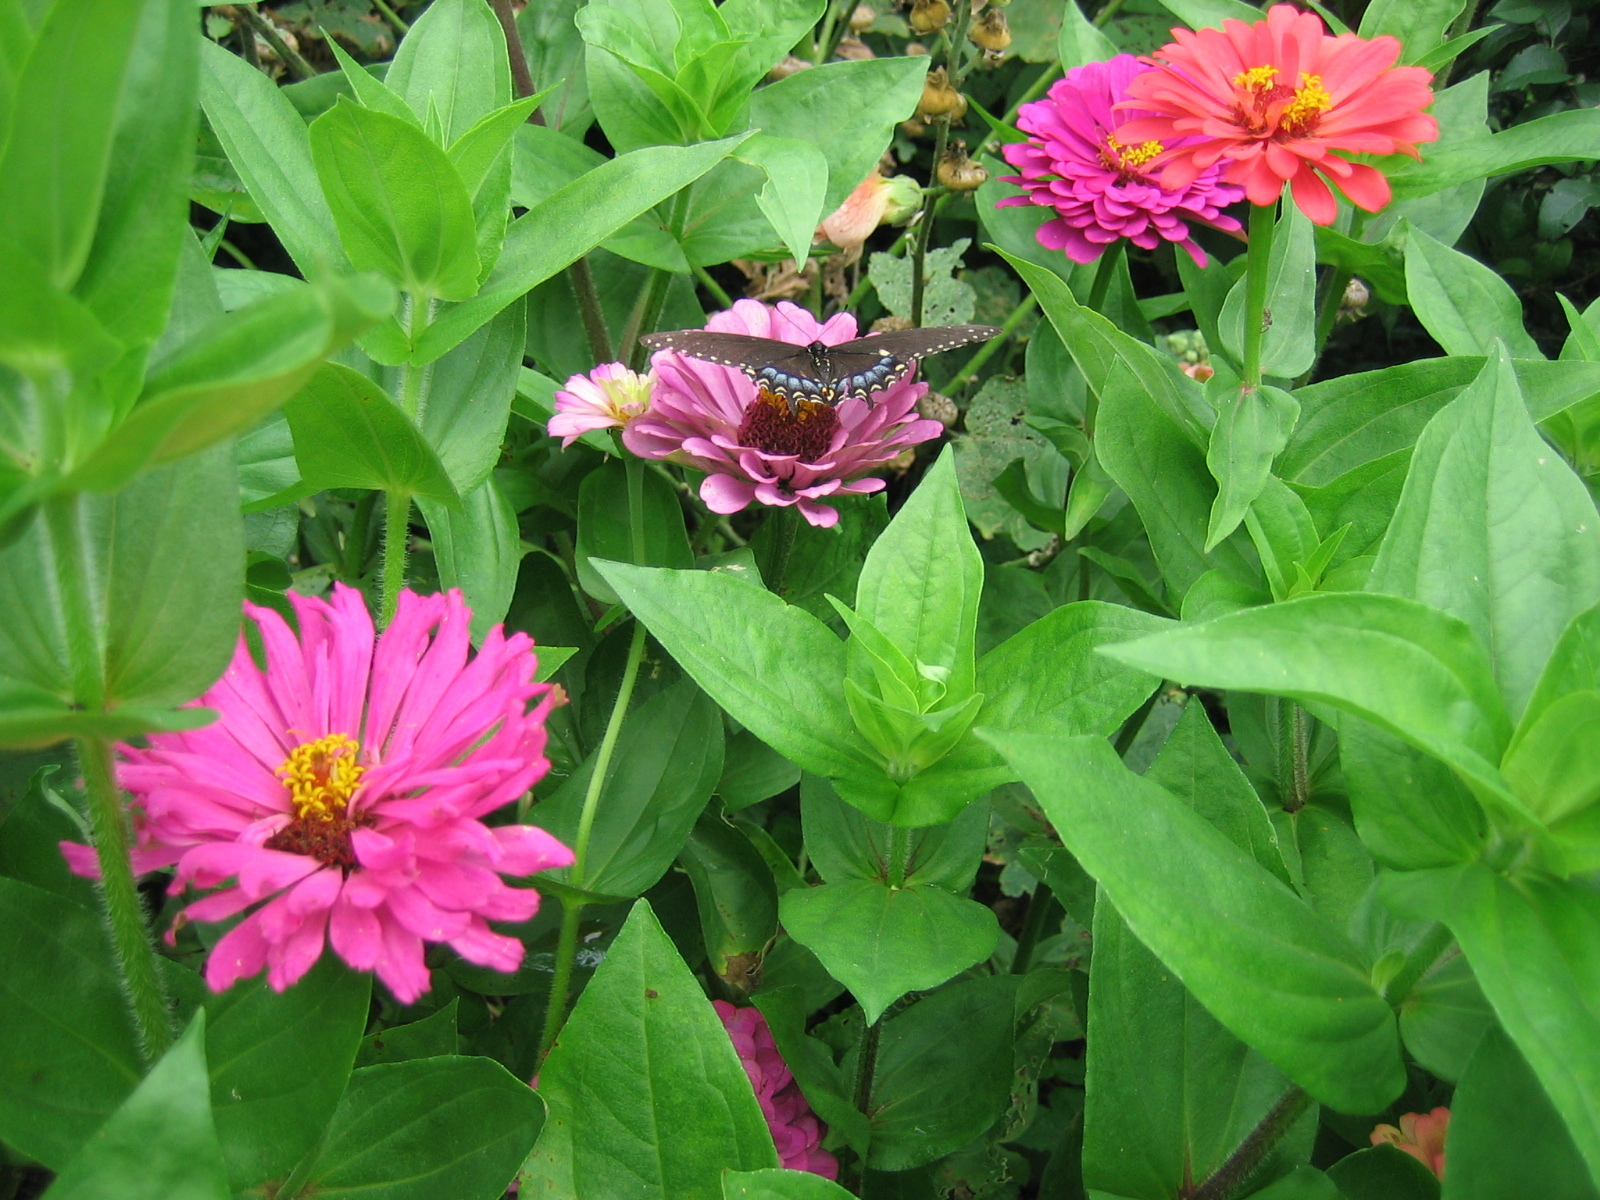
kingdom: Animalia
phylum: Arthropoda
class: Insecta
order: Lepidoptera
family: Papilionidae
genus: Papilio
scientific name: Papilio troilus
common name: Spicebush swallowtail
